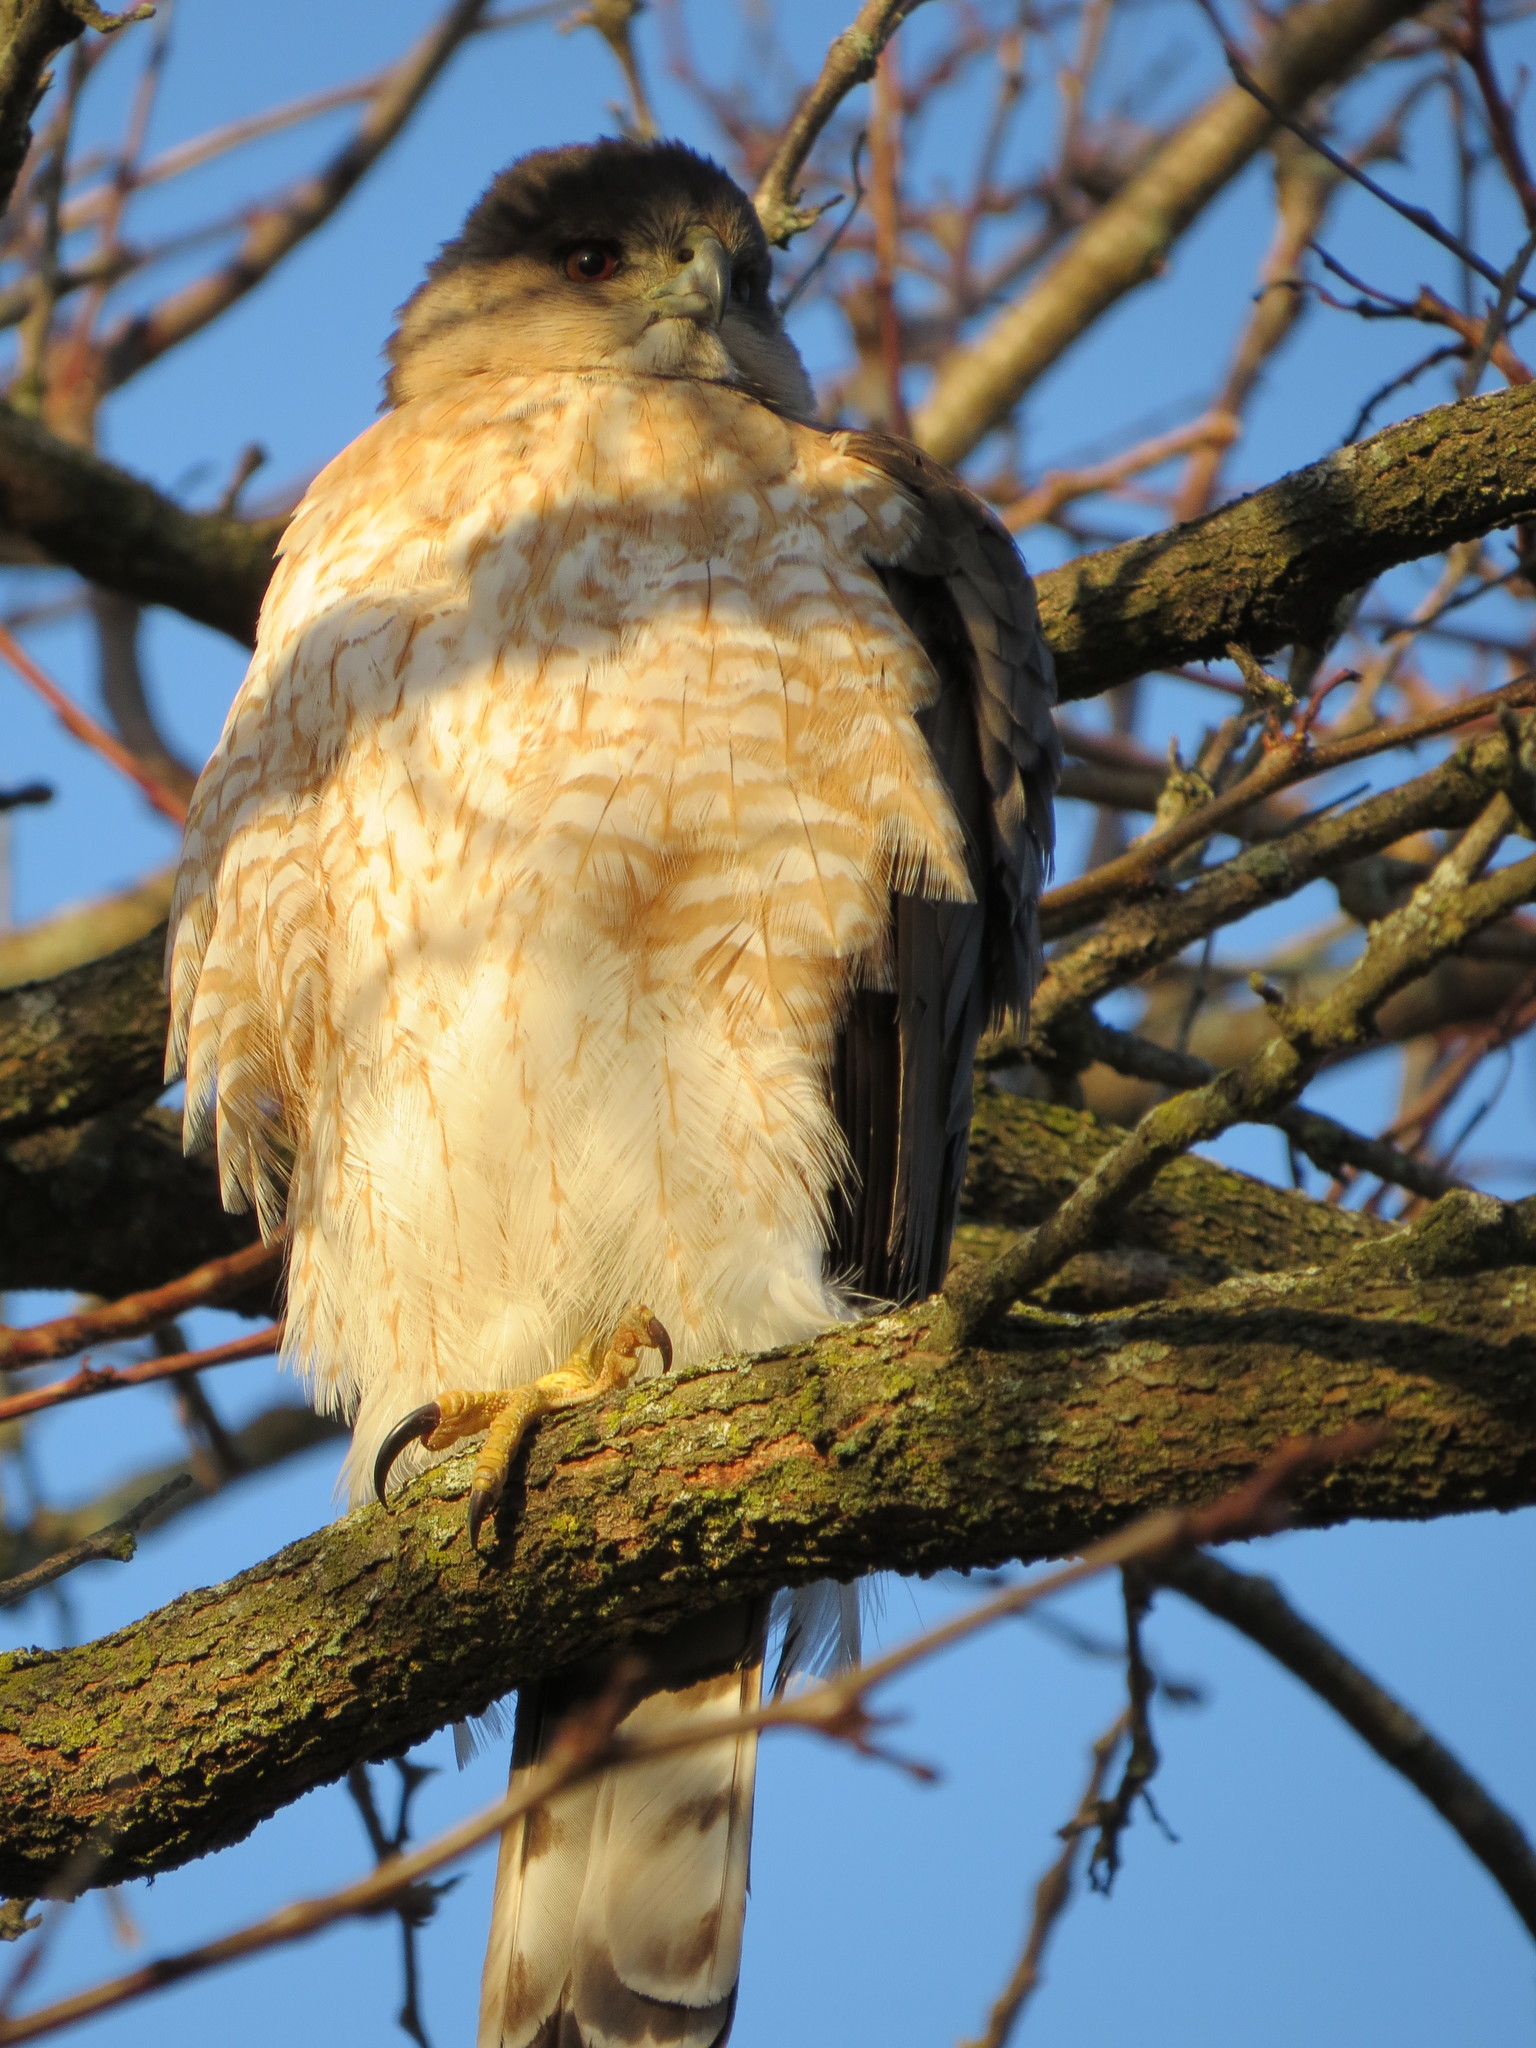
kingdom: Animalia
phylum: Chordata
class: Aves
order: Accipitriformes
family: Accipitridae
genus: Accipiter
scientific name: Accipiter cooperii
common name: Cooper's hawk
